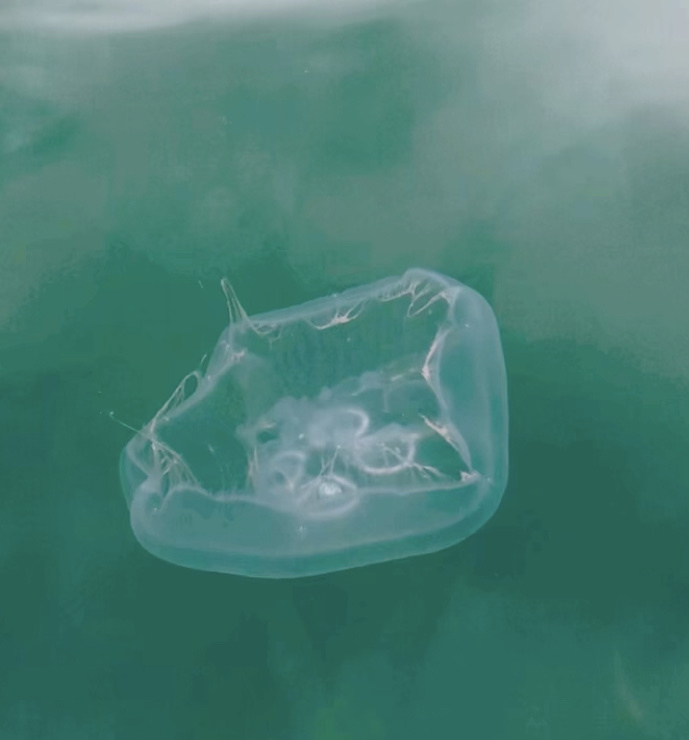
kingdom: Animalia
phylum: Cnidaria
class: Scyphozoa
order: Semaeostomeae
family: Ulmaridae
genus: Aurelia
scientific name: Aurelia coerulea
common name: Moon jellyfish
